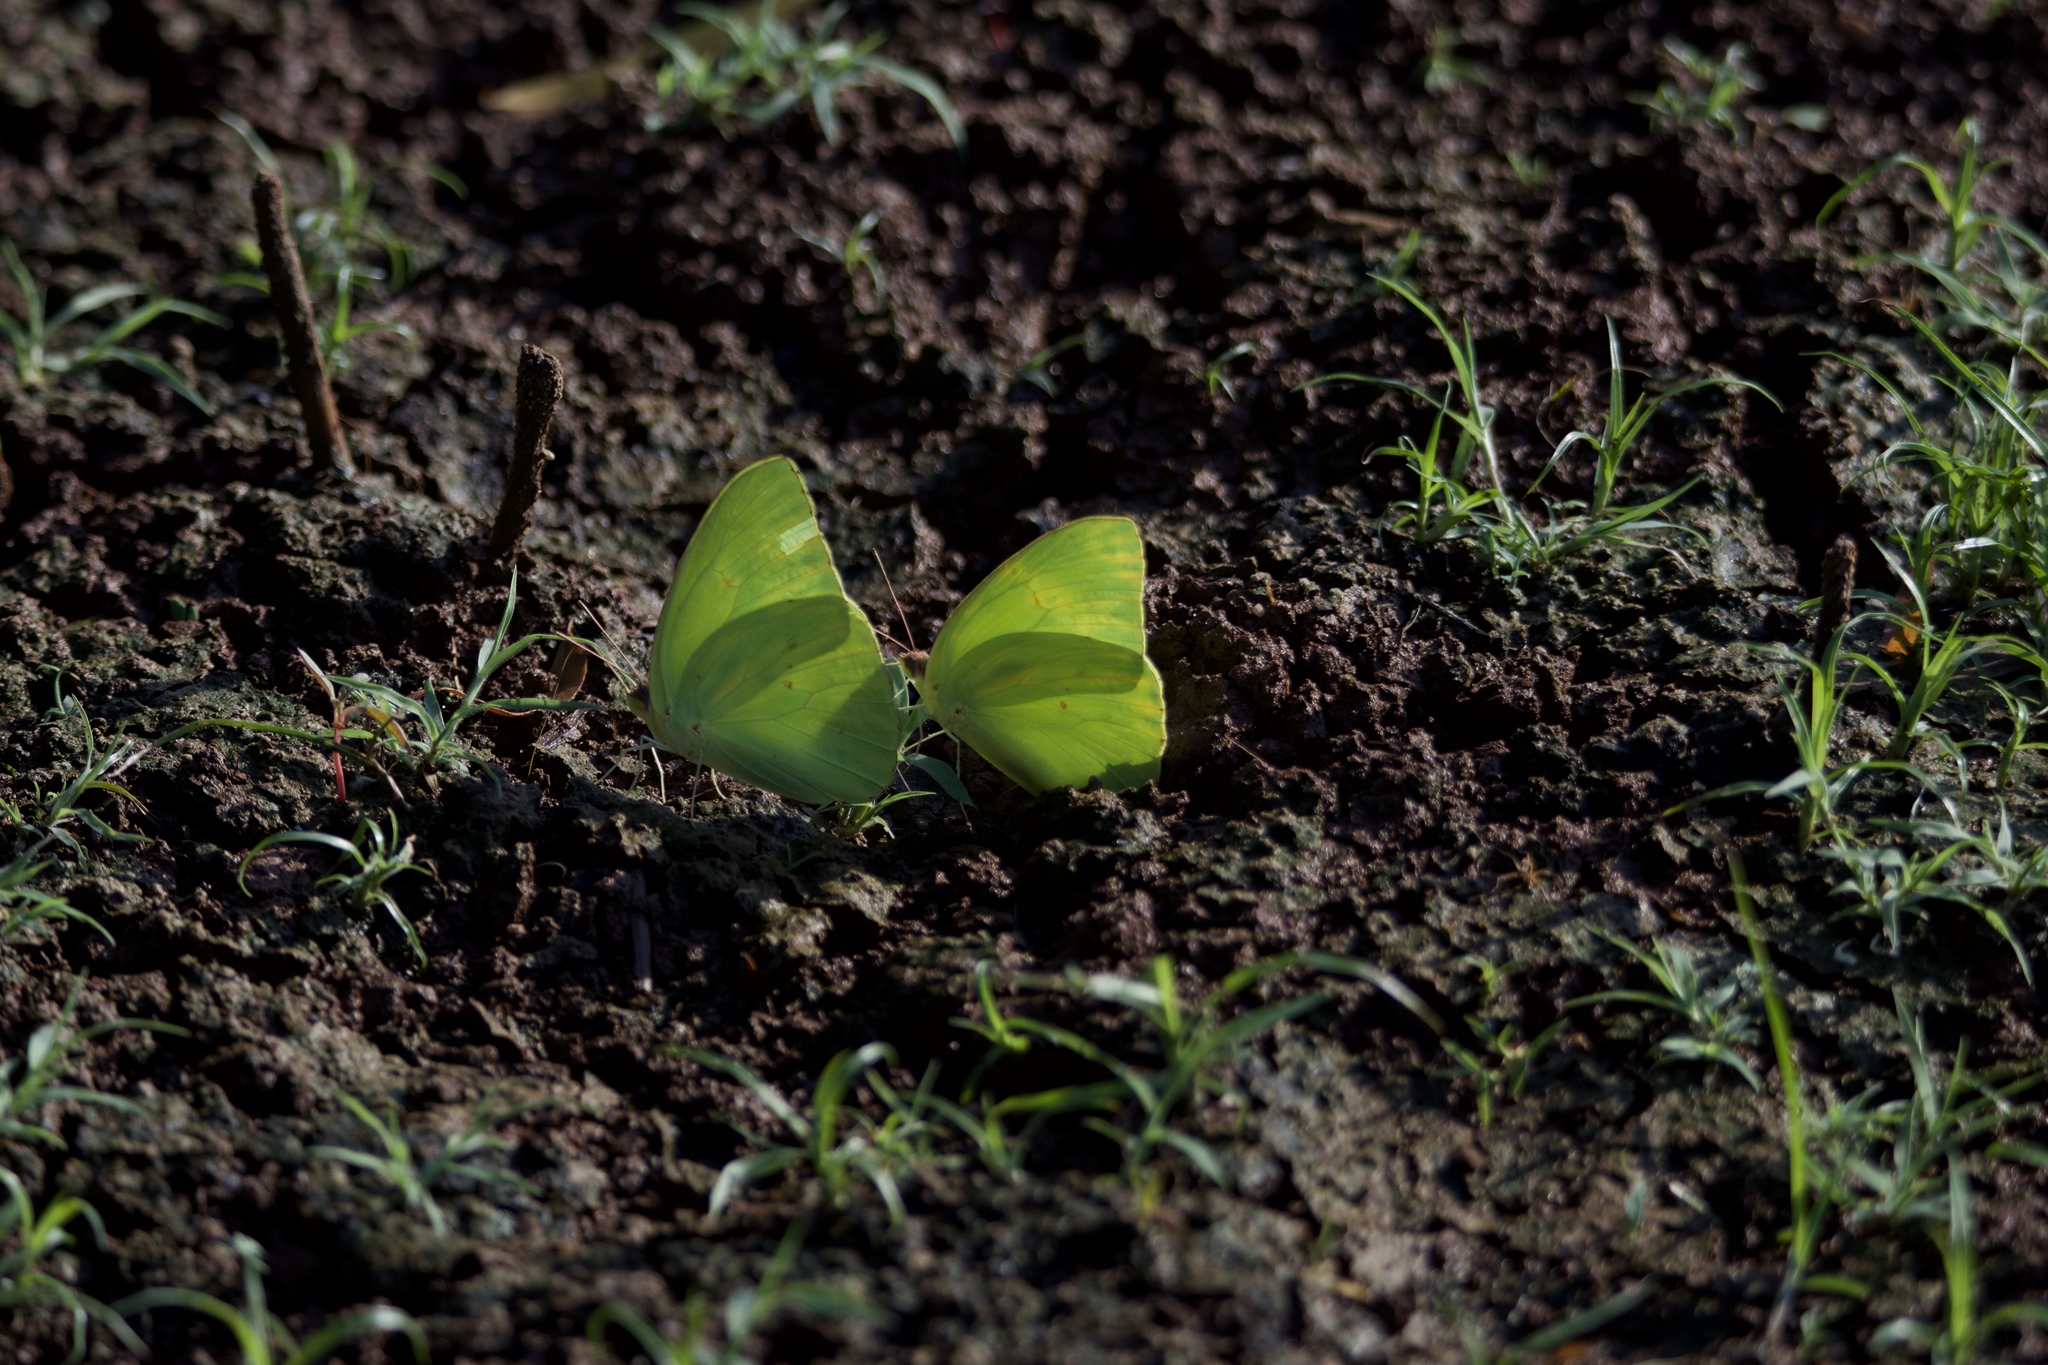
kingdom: Animalia
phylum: Arthropoda
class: Insecta
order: Lepidoptera
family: Pieridae
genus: Phoebis
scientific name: Phoebis sennae
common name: Cloudless sulphur
